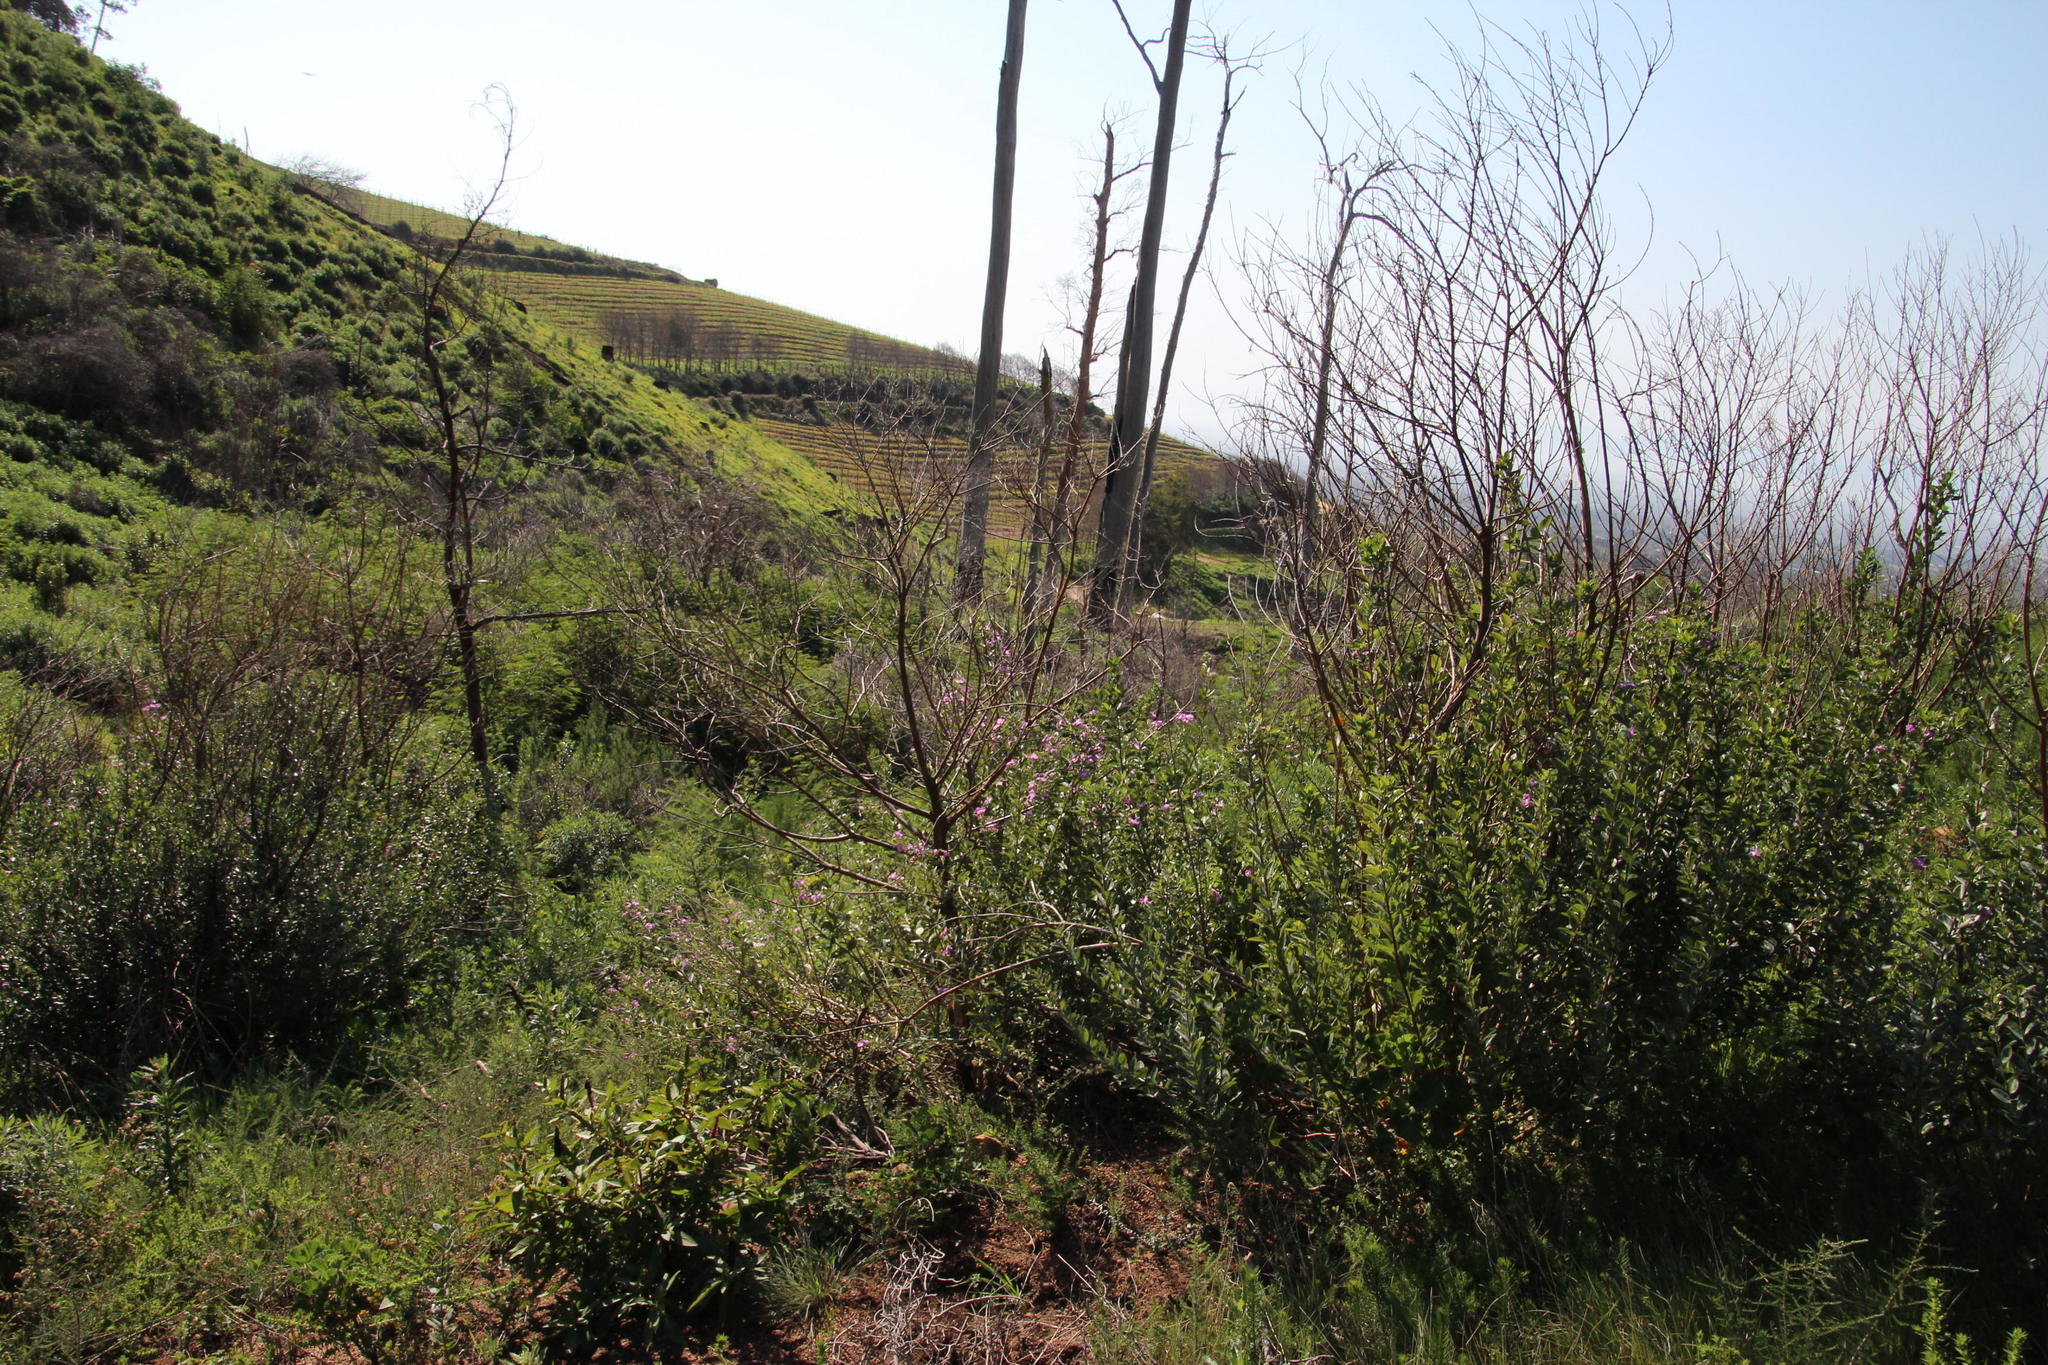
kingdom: Plantae
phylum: Tracheophyta
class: Magnoliopsida
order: Fabales
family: Fabaceae
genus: Podalyria
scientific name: Podalyria calyptrata
